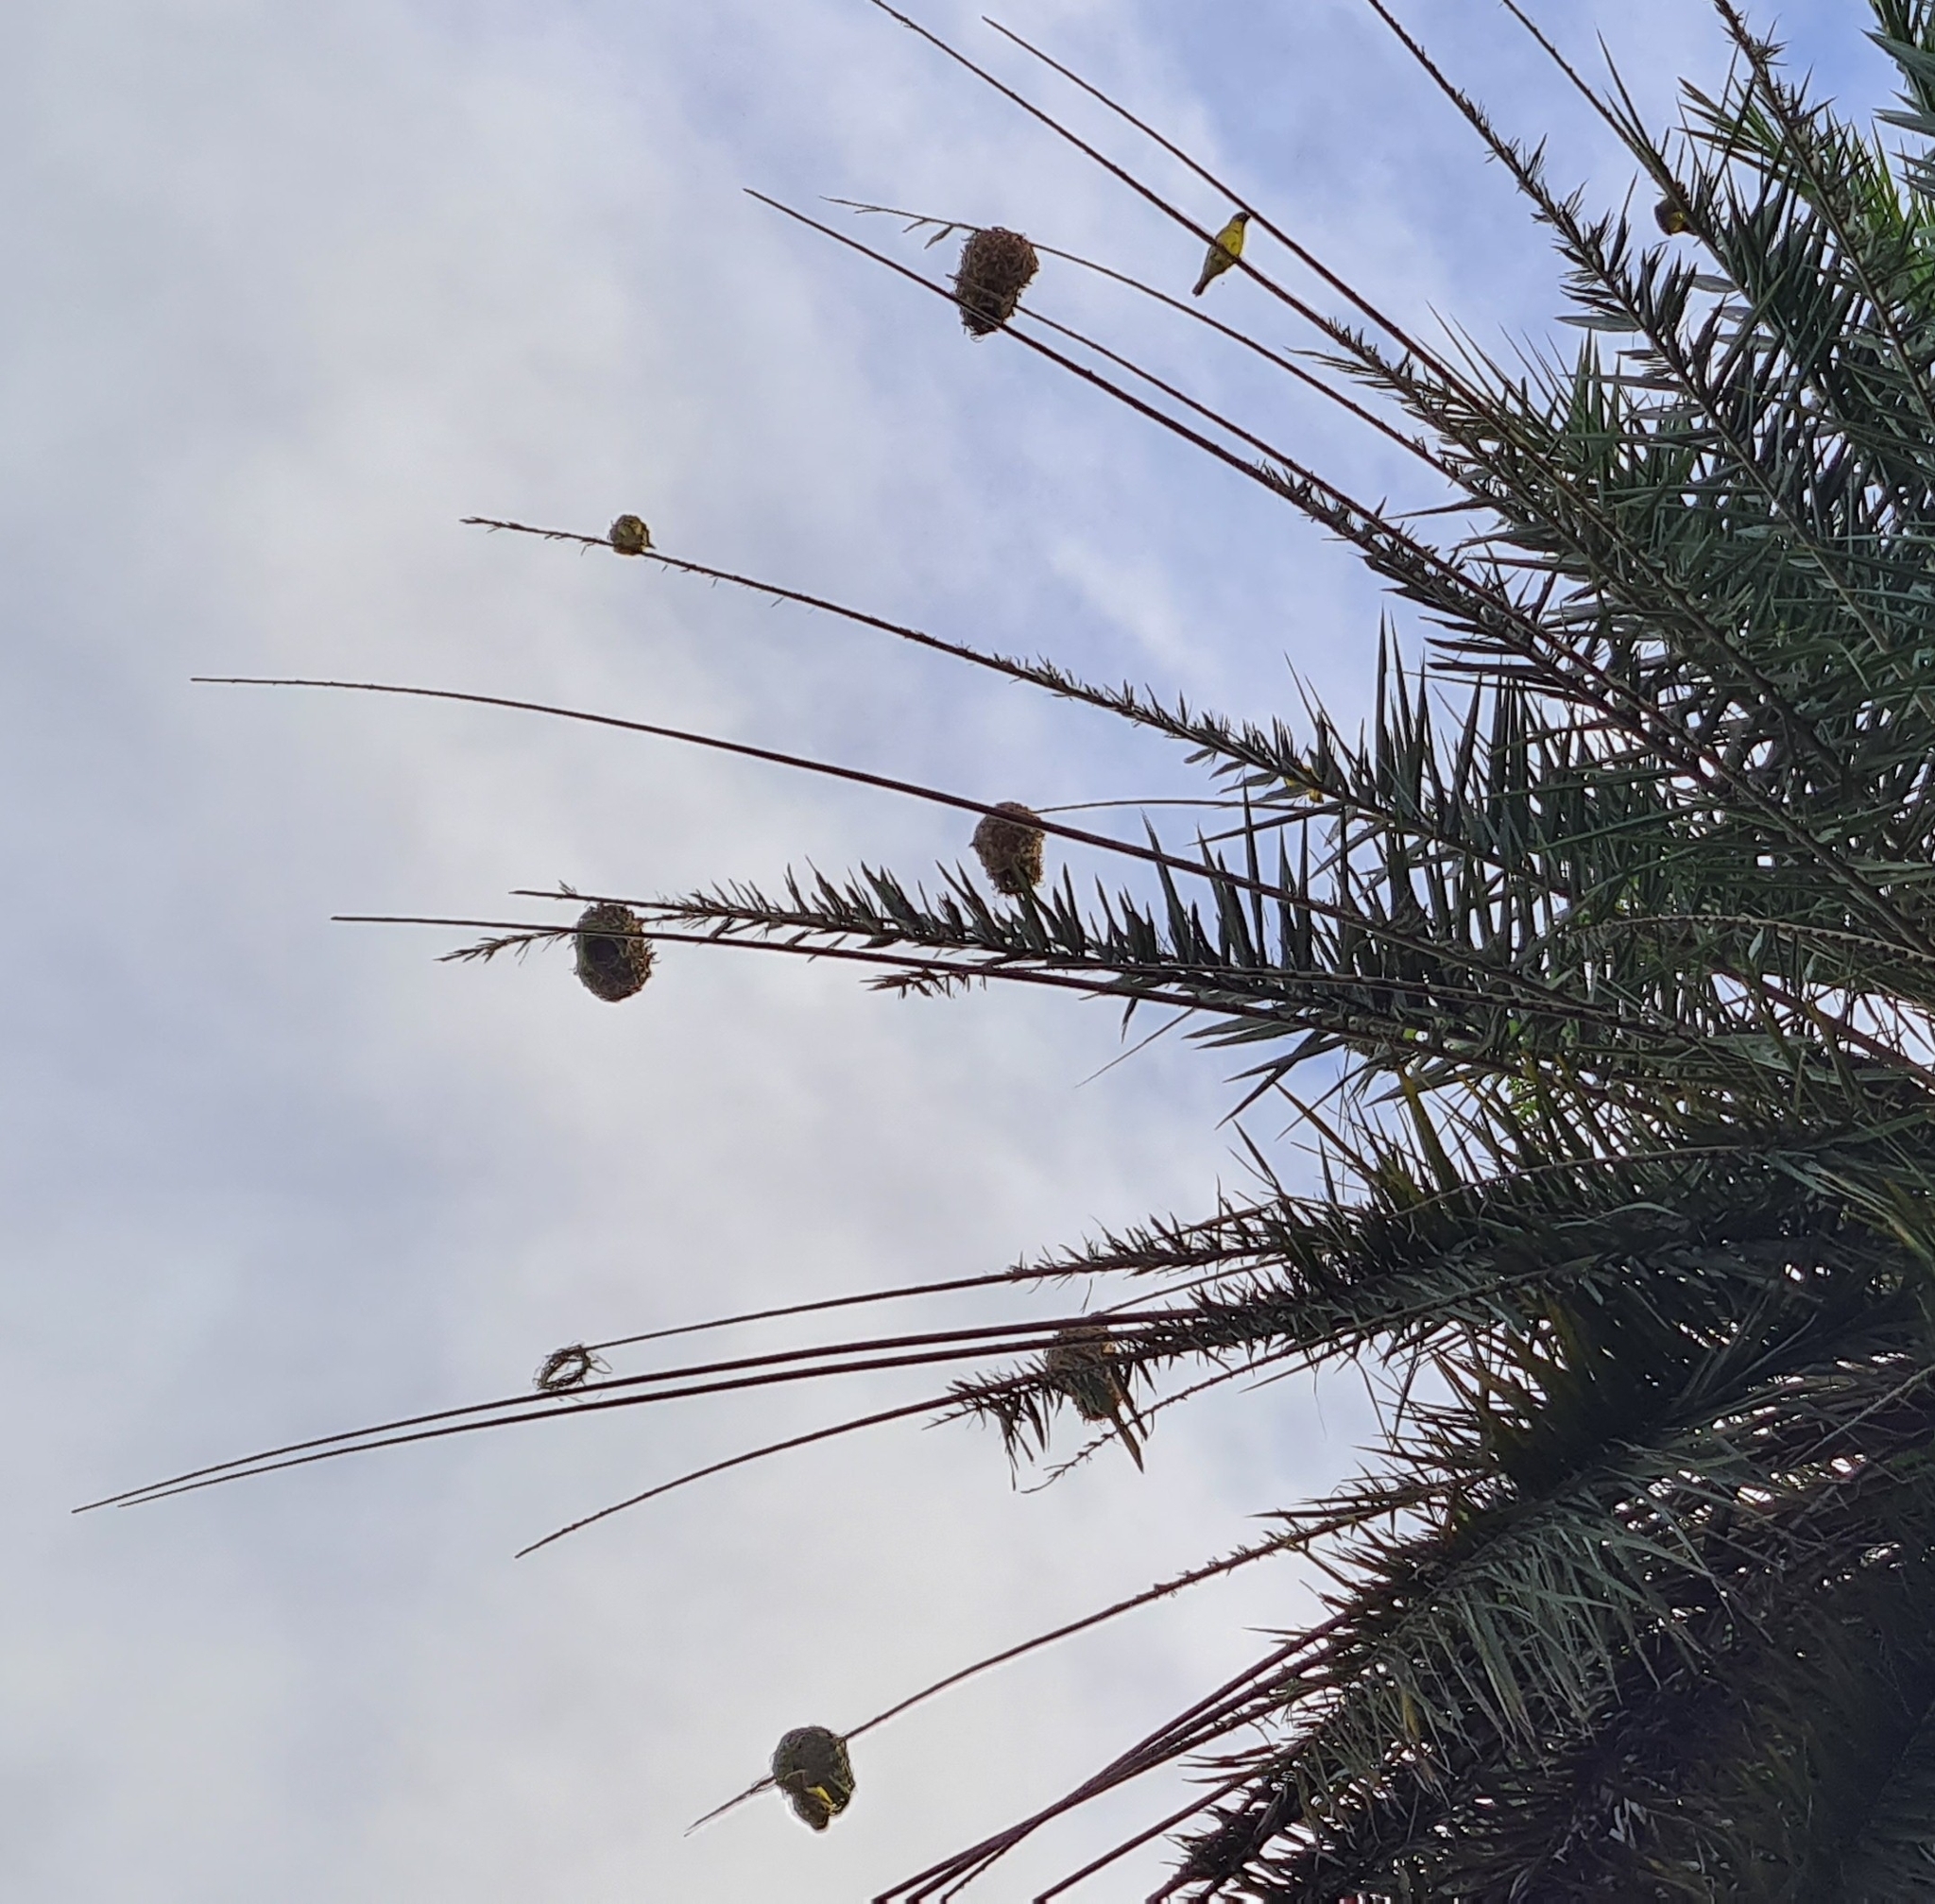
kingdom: Animalia
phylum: Chordata
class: Aves
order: Passeriformes
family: Ploceidae
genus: Ploceus
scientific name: Ploceus cucullatus
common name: Village weaver
